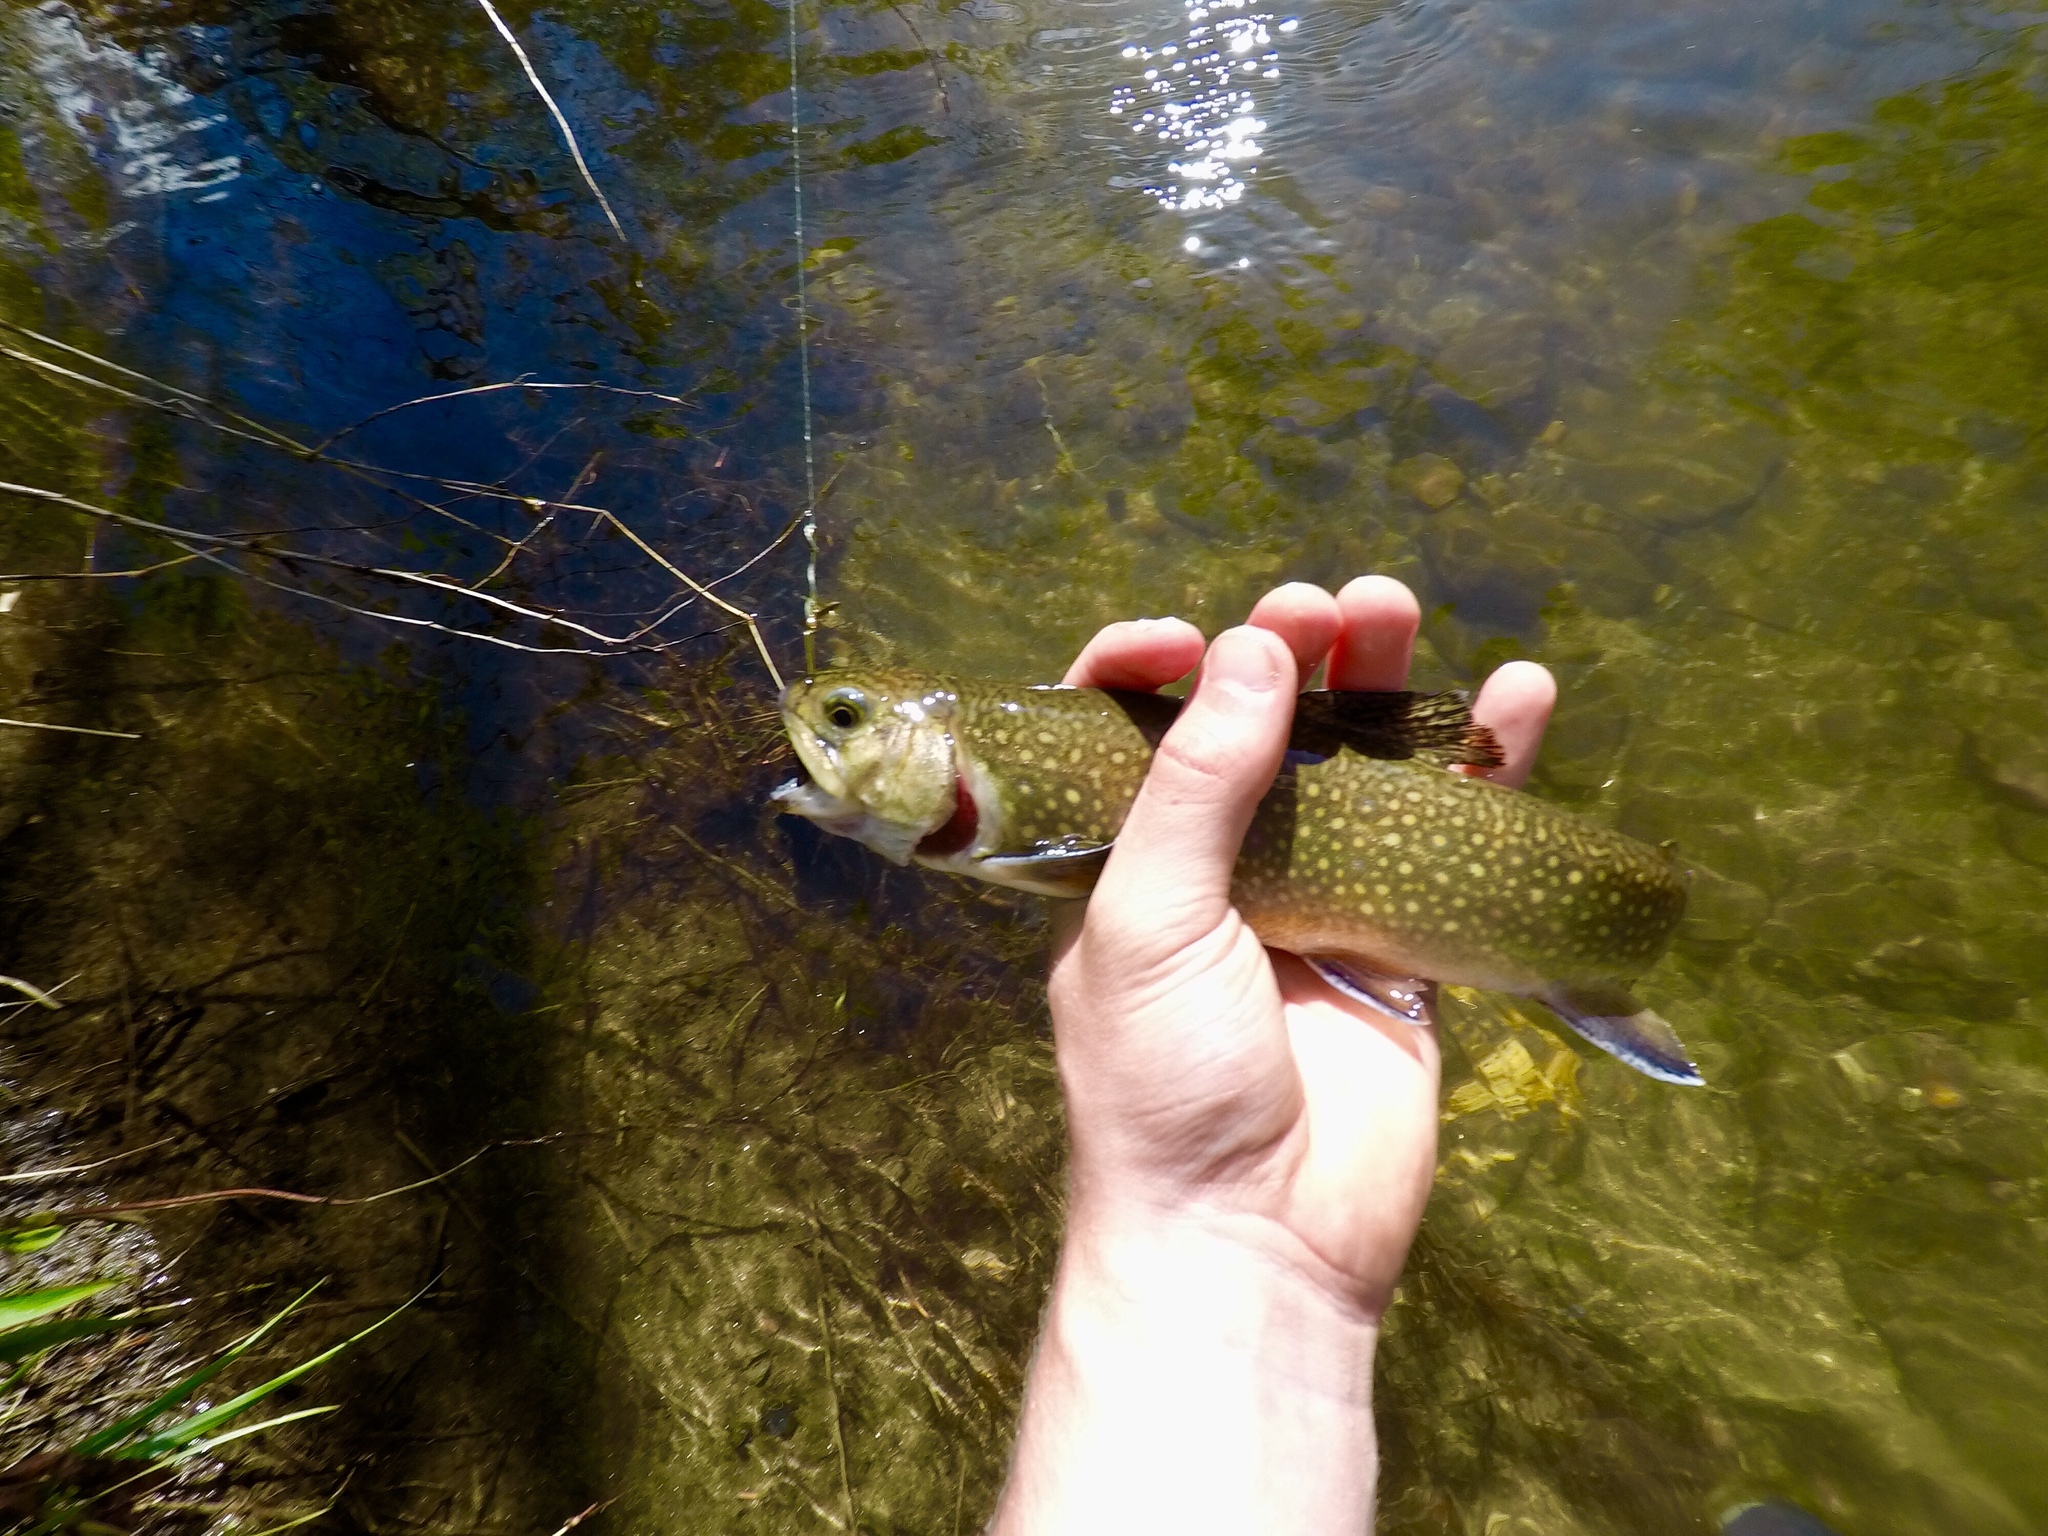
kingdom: Animalia
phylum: Chordata
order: Salmoniformes
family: Salmonidae
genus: Salvelinus
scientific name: Salvelinus fontinalis
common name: Brook trout
